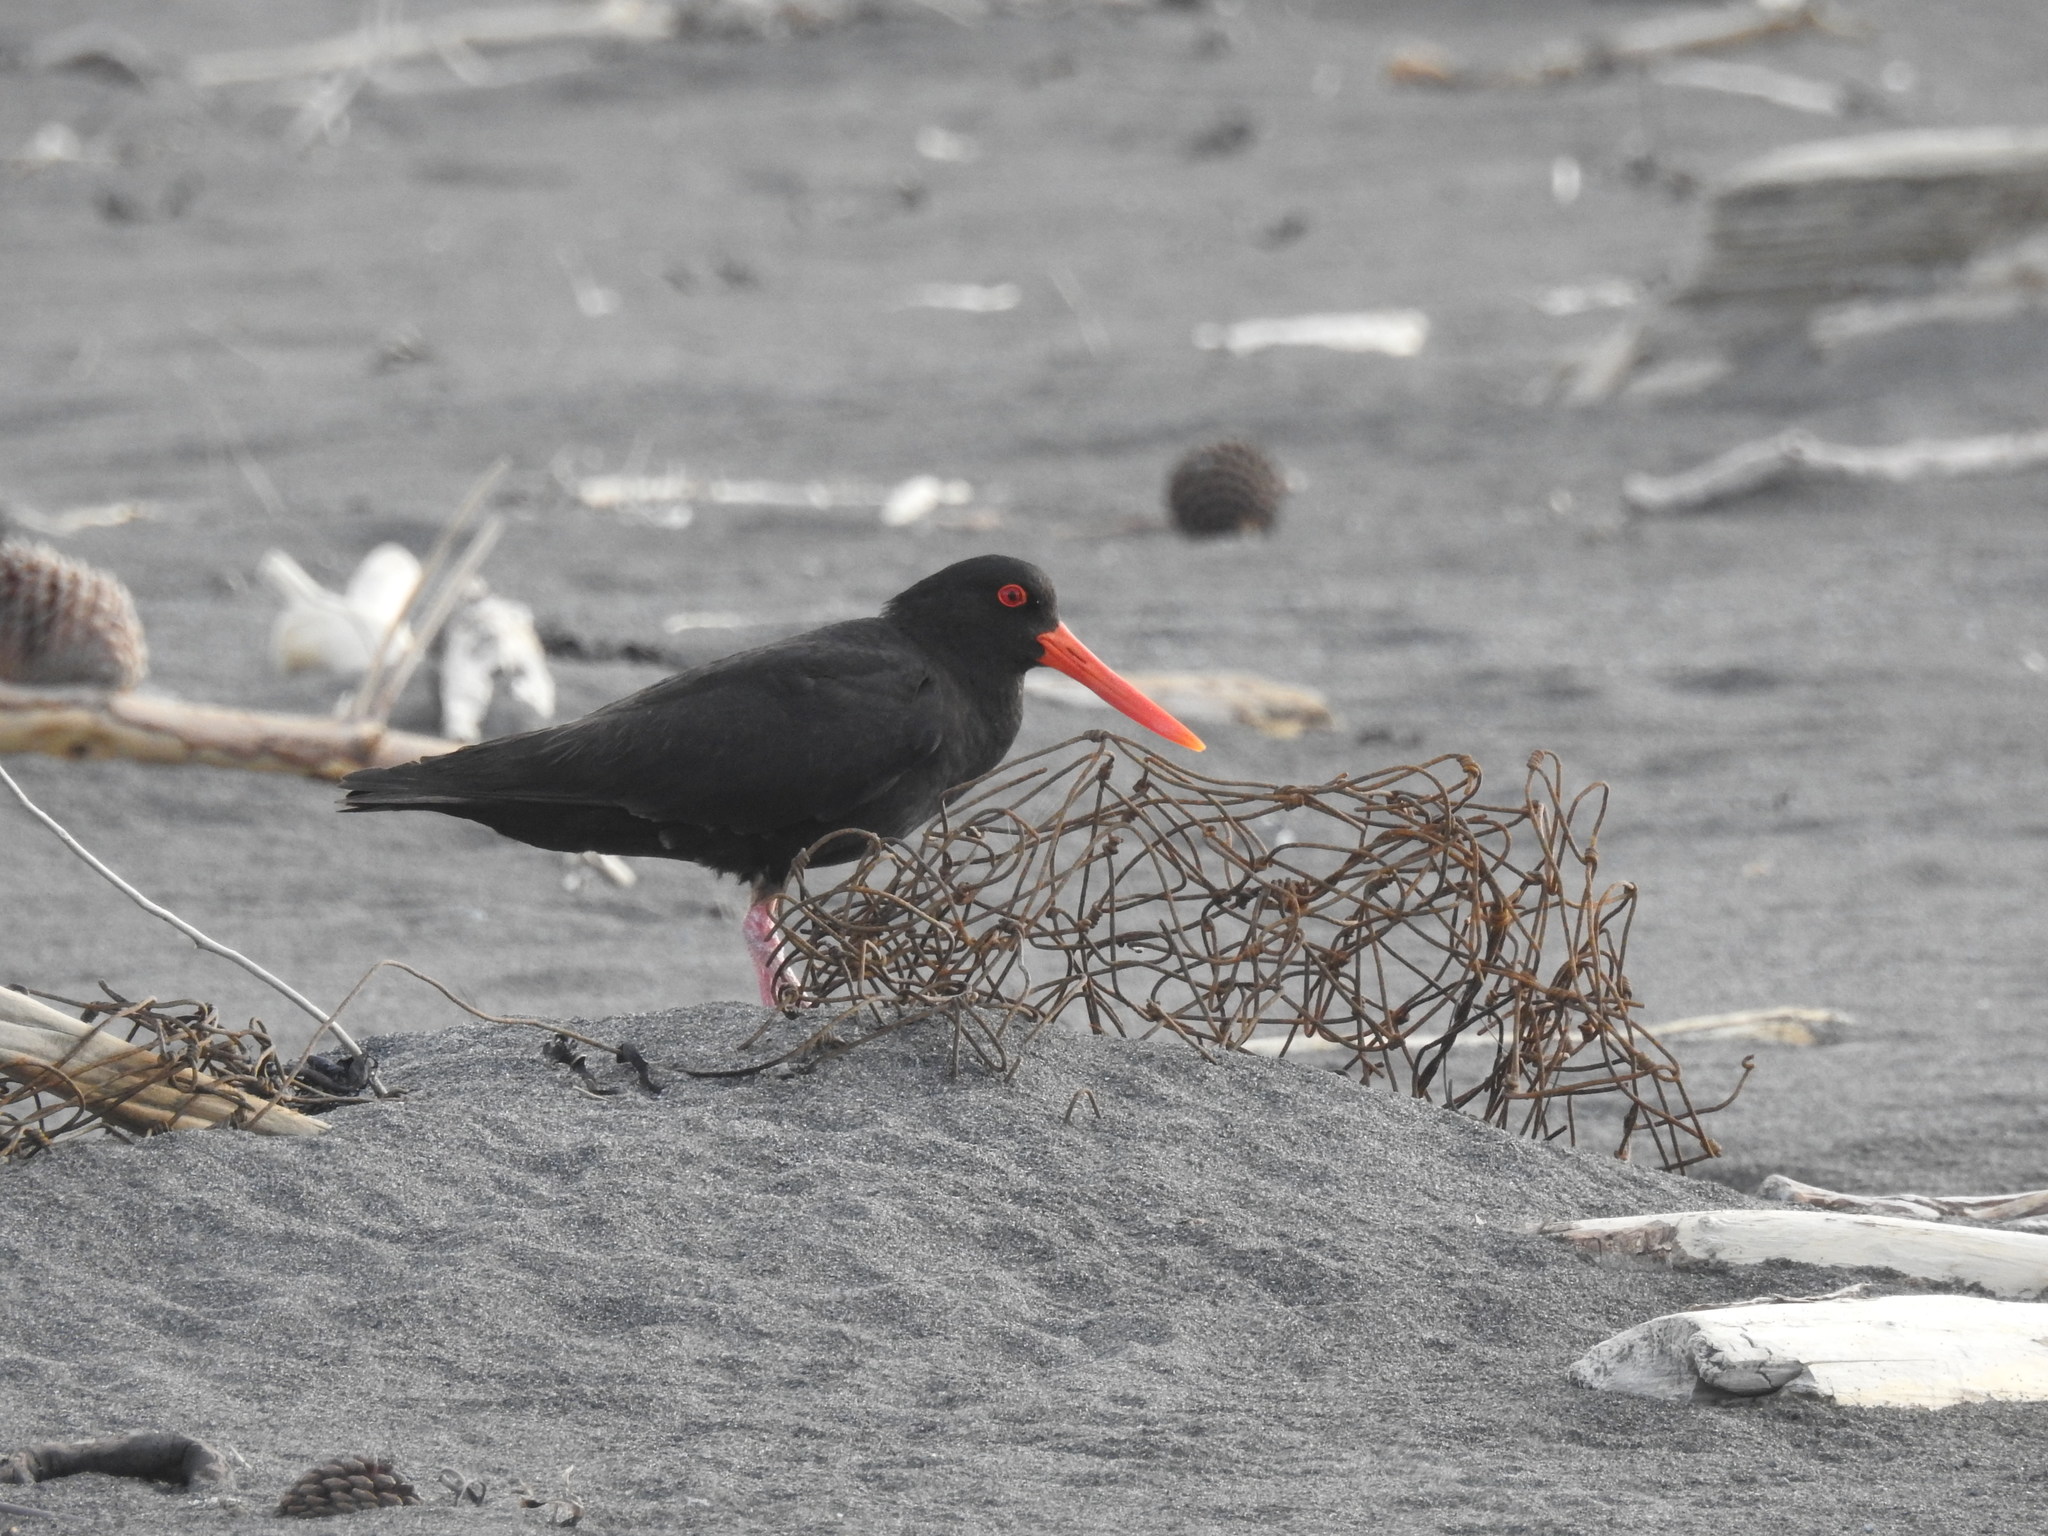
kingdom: Animalia
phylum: Chordata
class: Aves
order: Charadriiformes
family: Haematopodidae
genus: Haematopus
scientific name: Haematopus unicolor
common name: Variable oystercatcher
